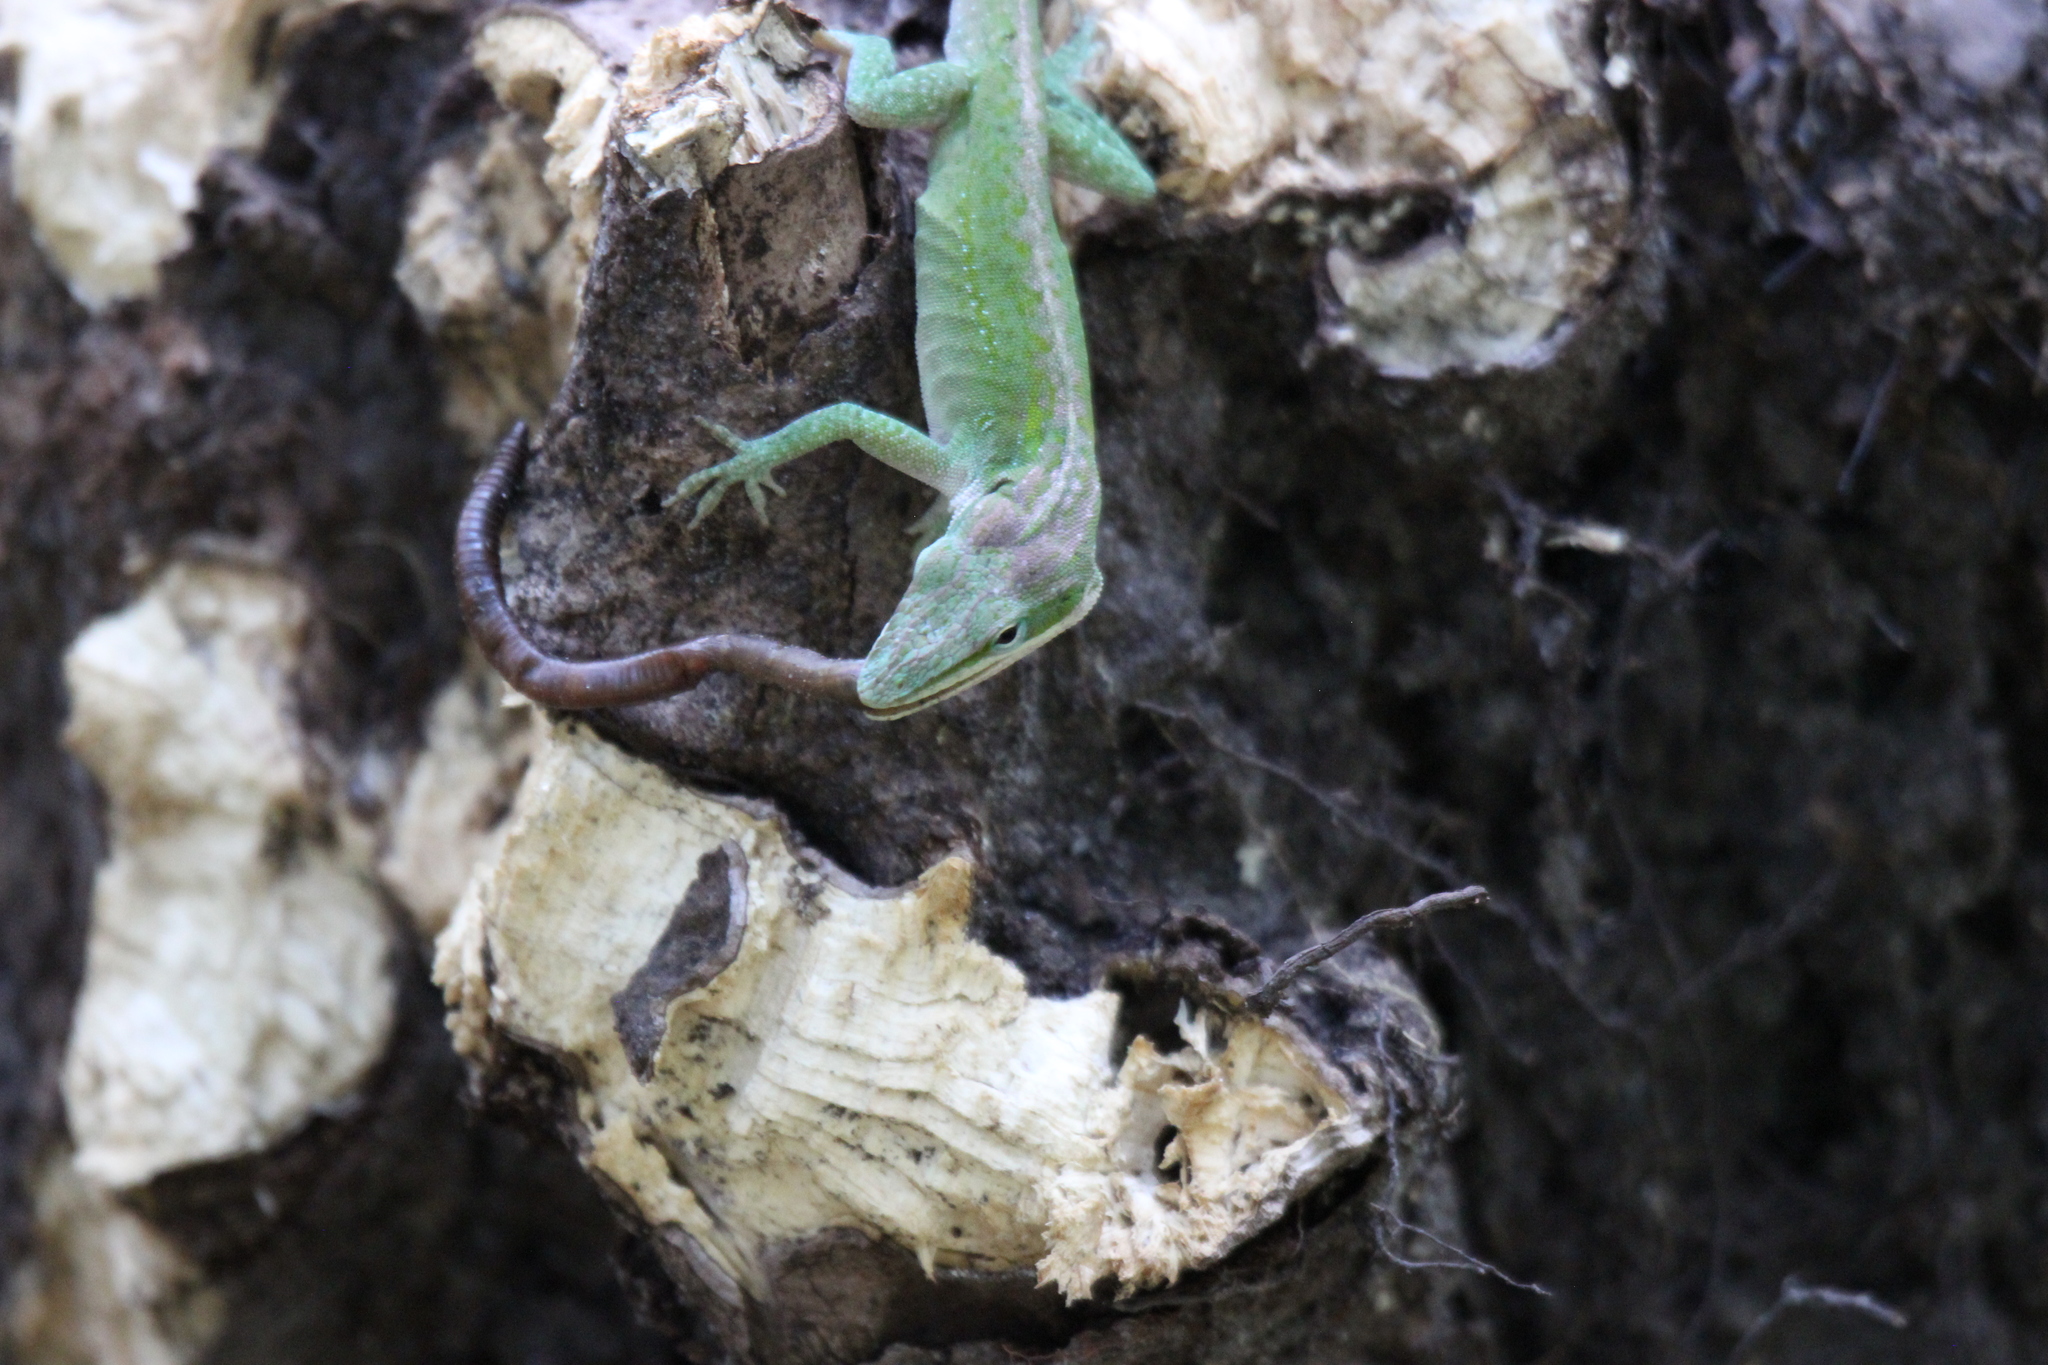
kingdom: Animalia
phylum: Chordata
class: Squamata
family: Dactyloidae
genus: Anolis
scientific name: Anolis carolinensis
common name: Green anole
